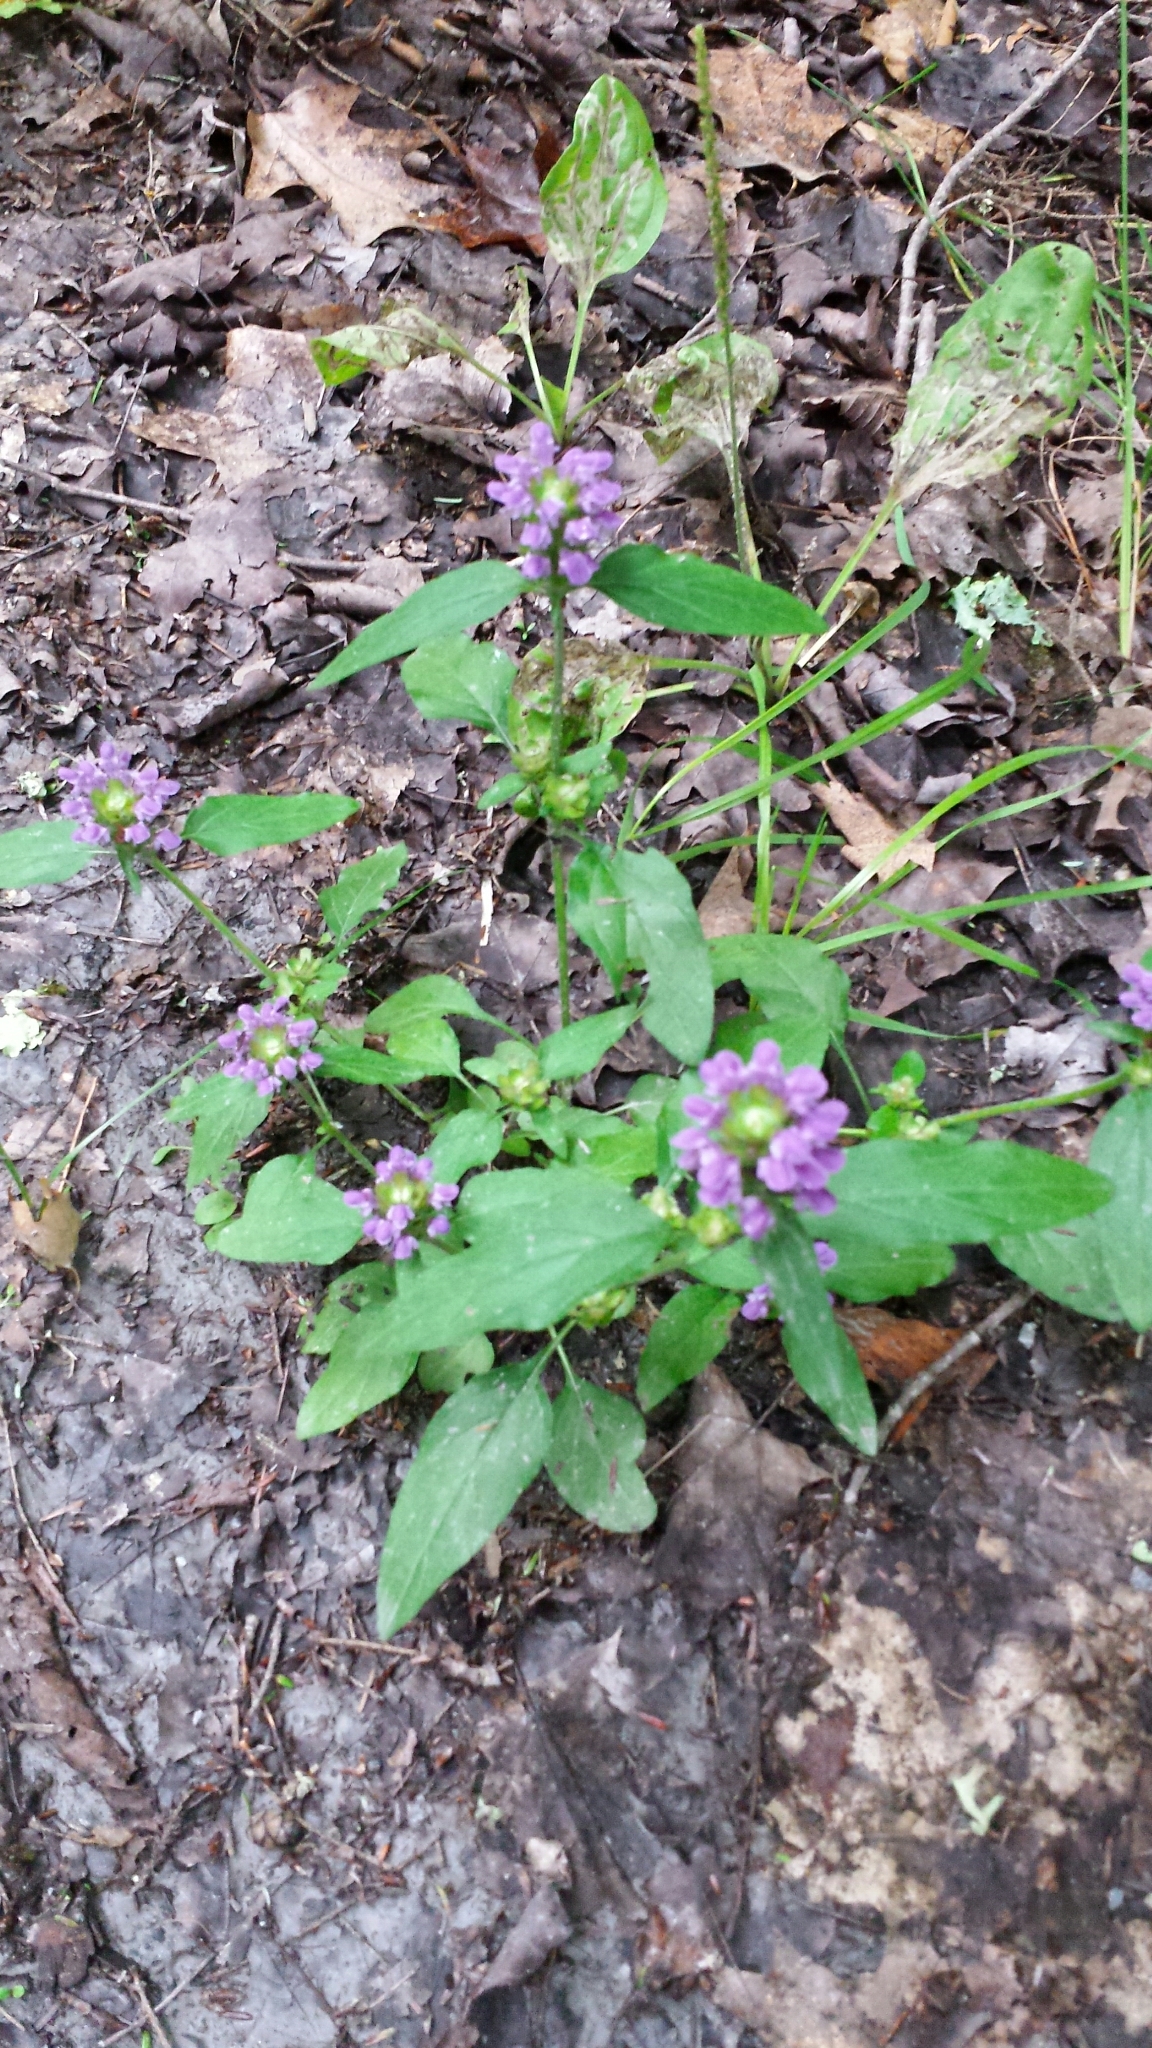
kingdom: Plantae
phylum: Tracheophyta
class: Magnoliopsida
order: Lamiales
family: Lamiaceae
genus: Prunella
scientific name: Prunella vulgaris
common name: Heal-all
